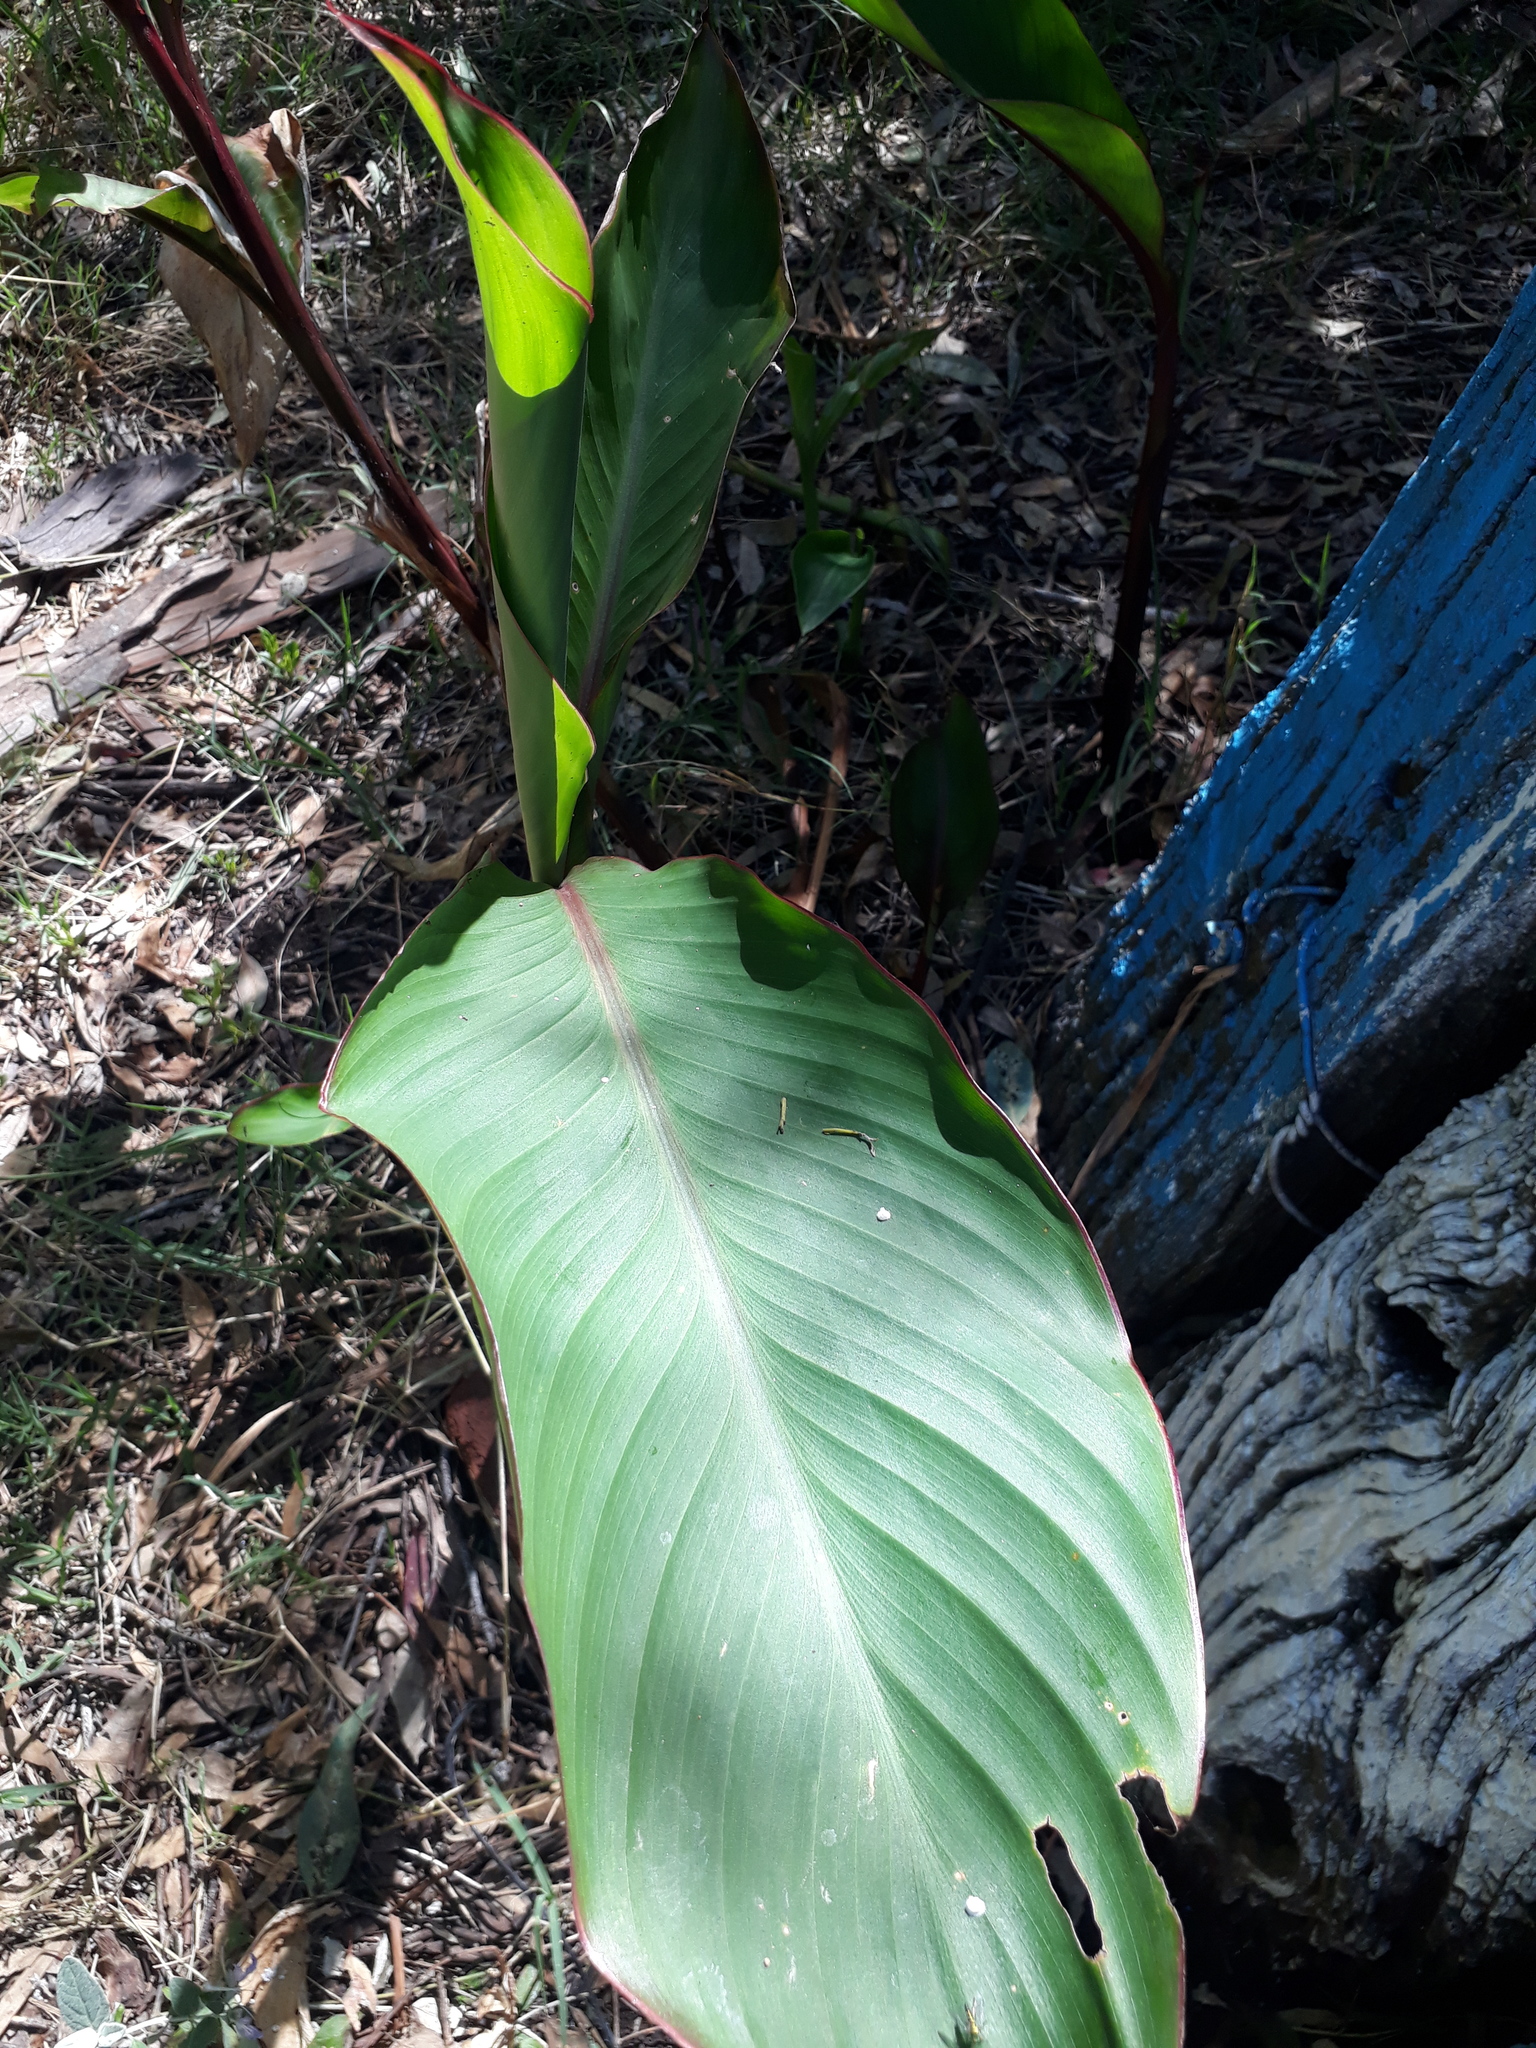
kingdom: Plantae
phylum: Tracheophyta
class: Liliopsida
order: Zingiberales
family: Cannaceae
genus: Canna
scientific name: Canna indica
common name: Indian shot
